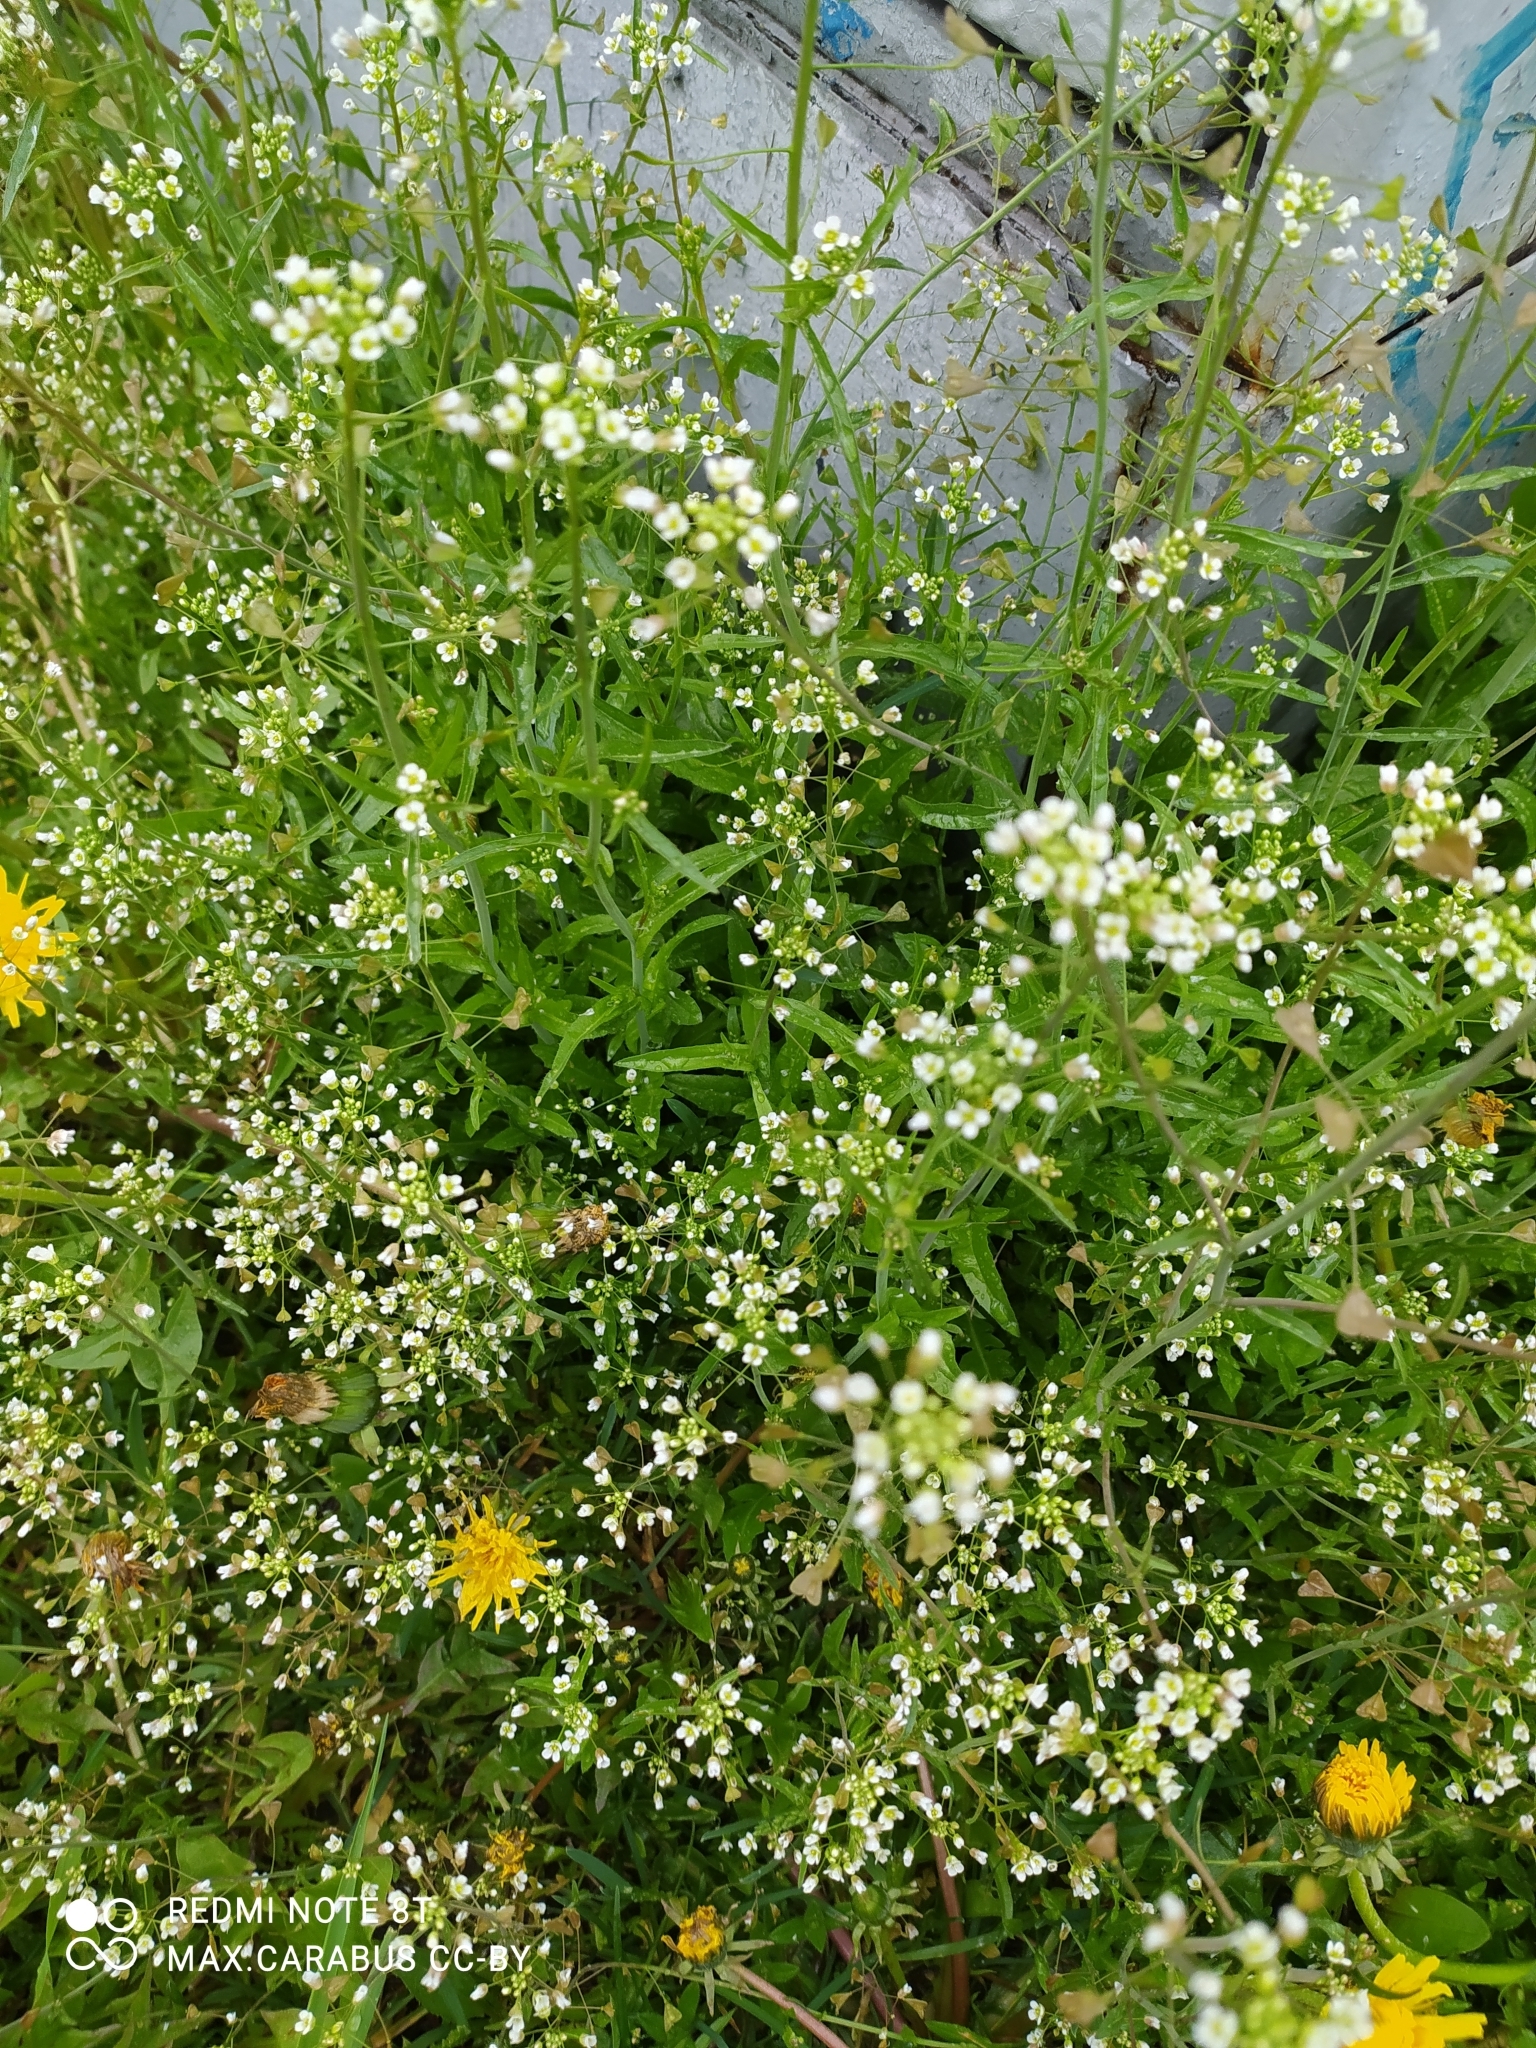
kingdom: Plantae
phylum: Tracheophyta
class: Magnoliopsida
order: Brassicales
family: Brassicaceae
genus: Capsella
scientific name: Capsella bursa-pastoris
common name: Shepherd's purse
